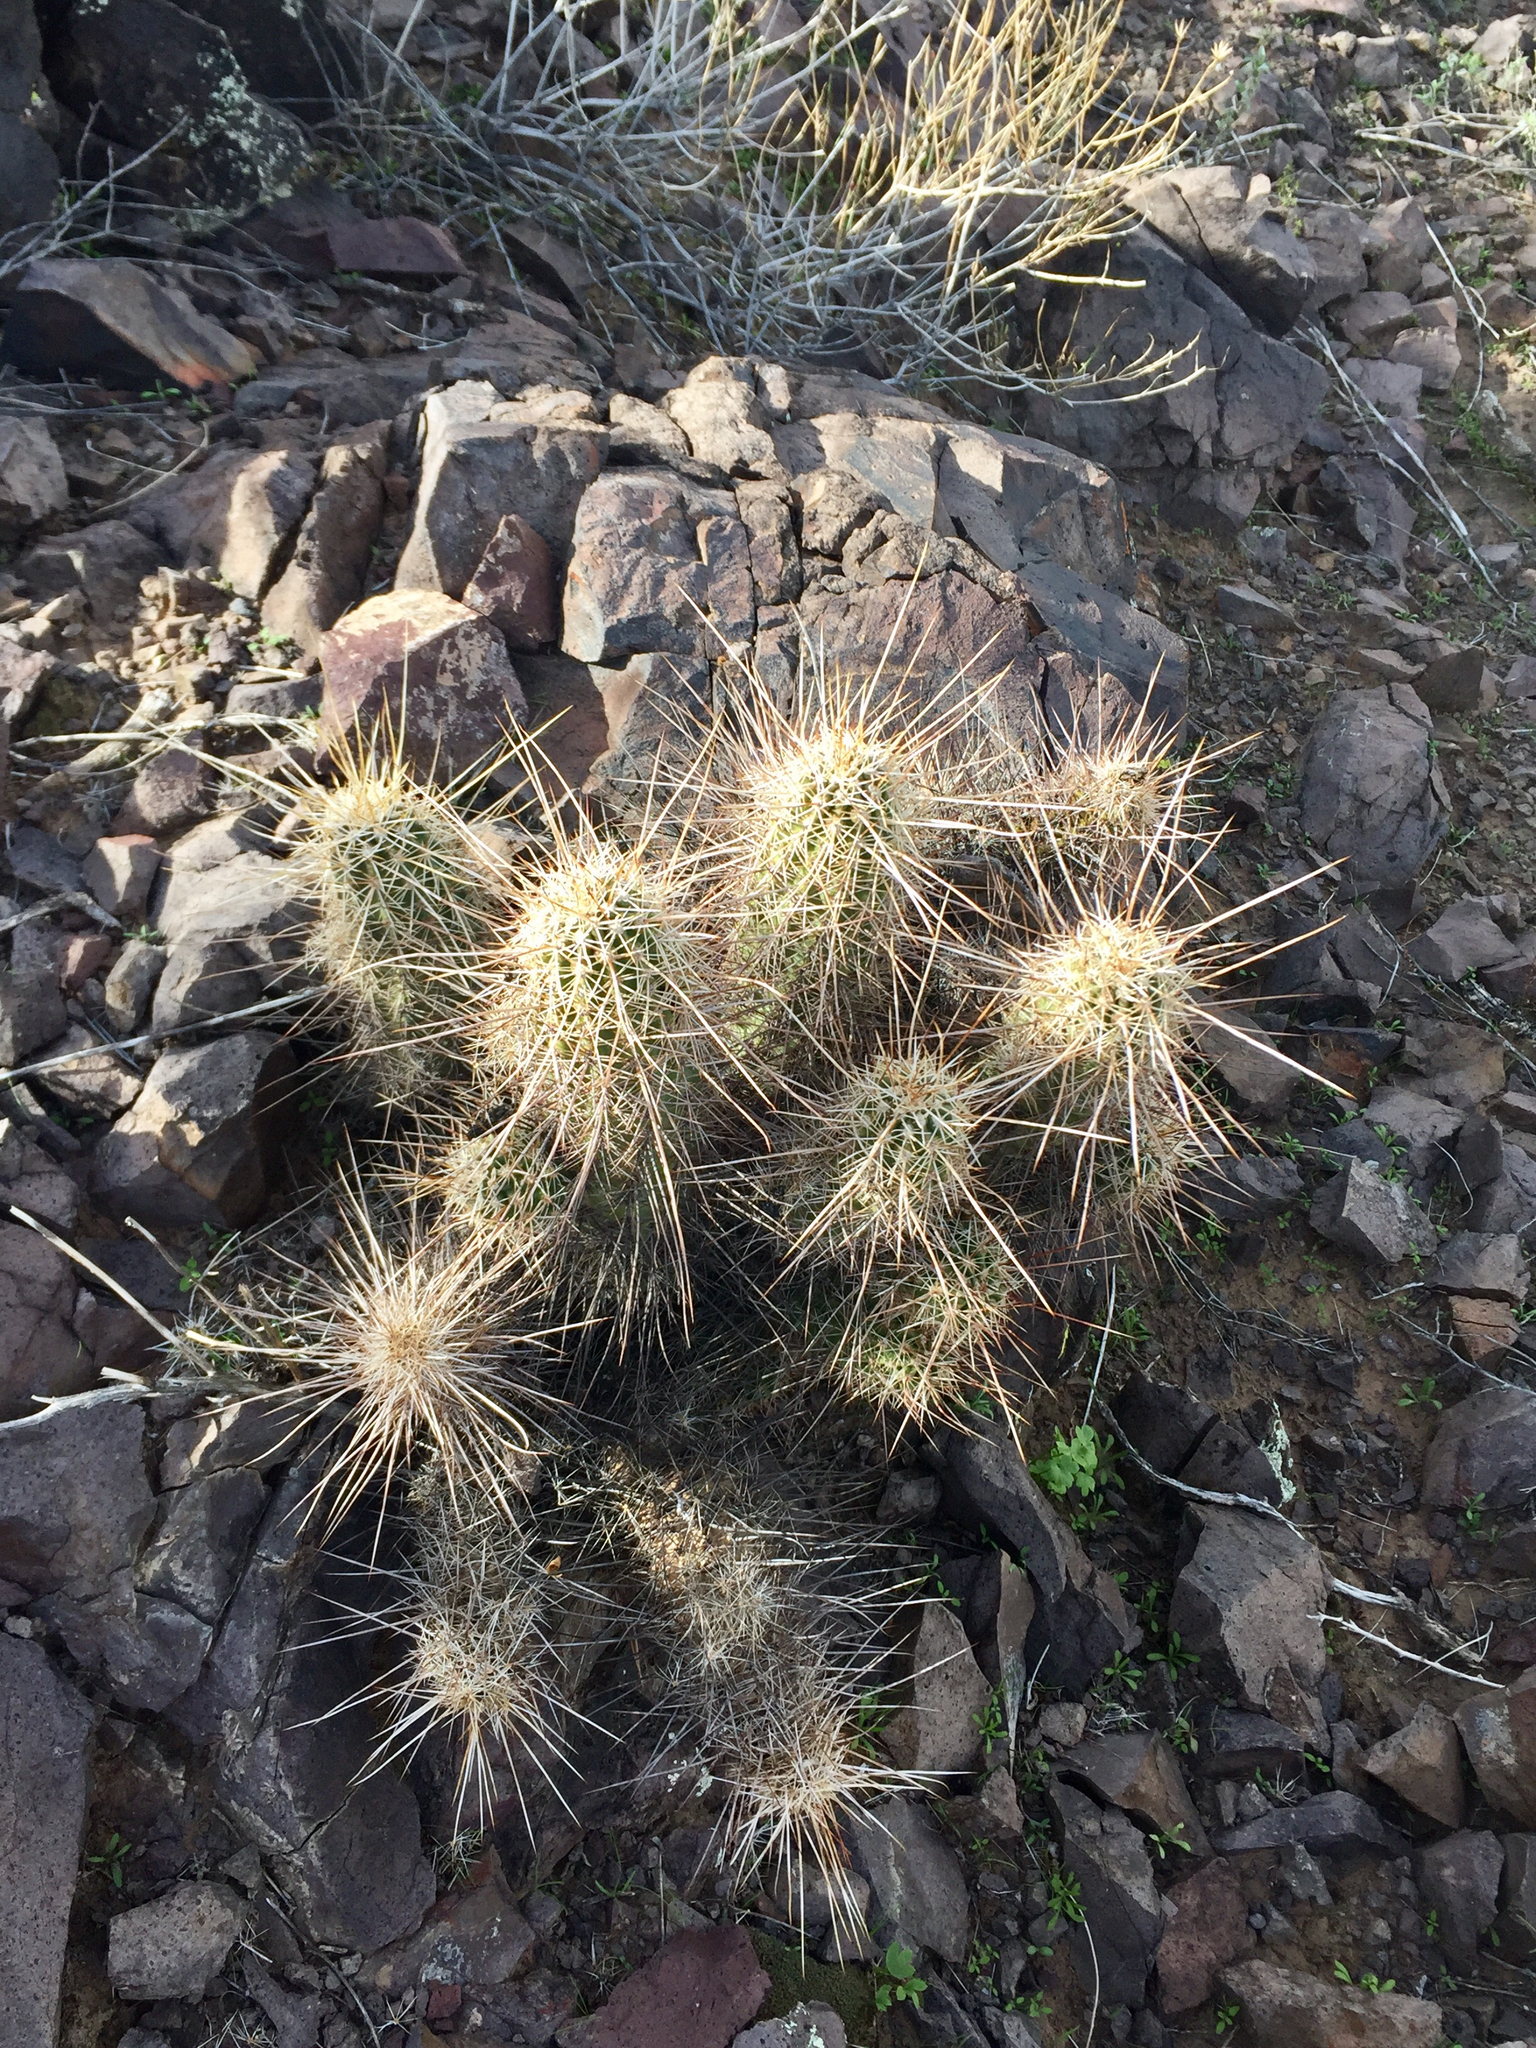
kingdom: Plantae
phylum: Tracheophyta
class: Magnoliopsida
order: Caryophyllales
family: Cactaceae
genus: Echinocereus
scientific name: Echinocereus engelmannii
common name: Engelmann's hedgehog cactus
